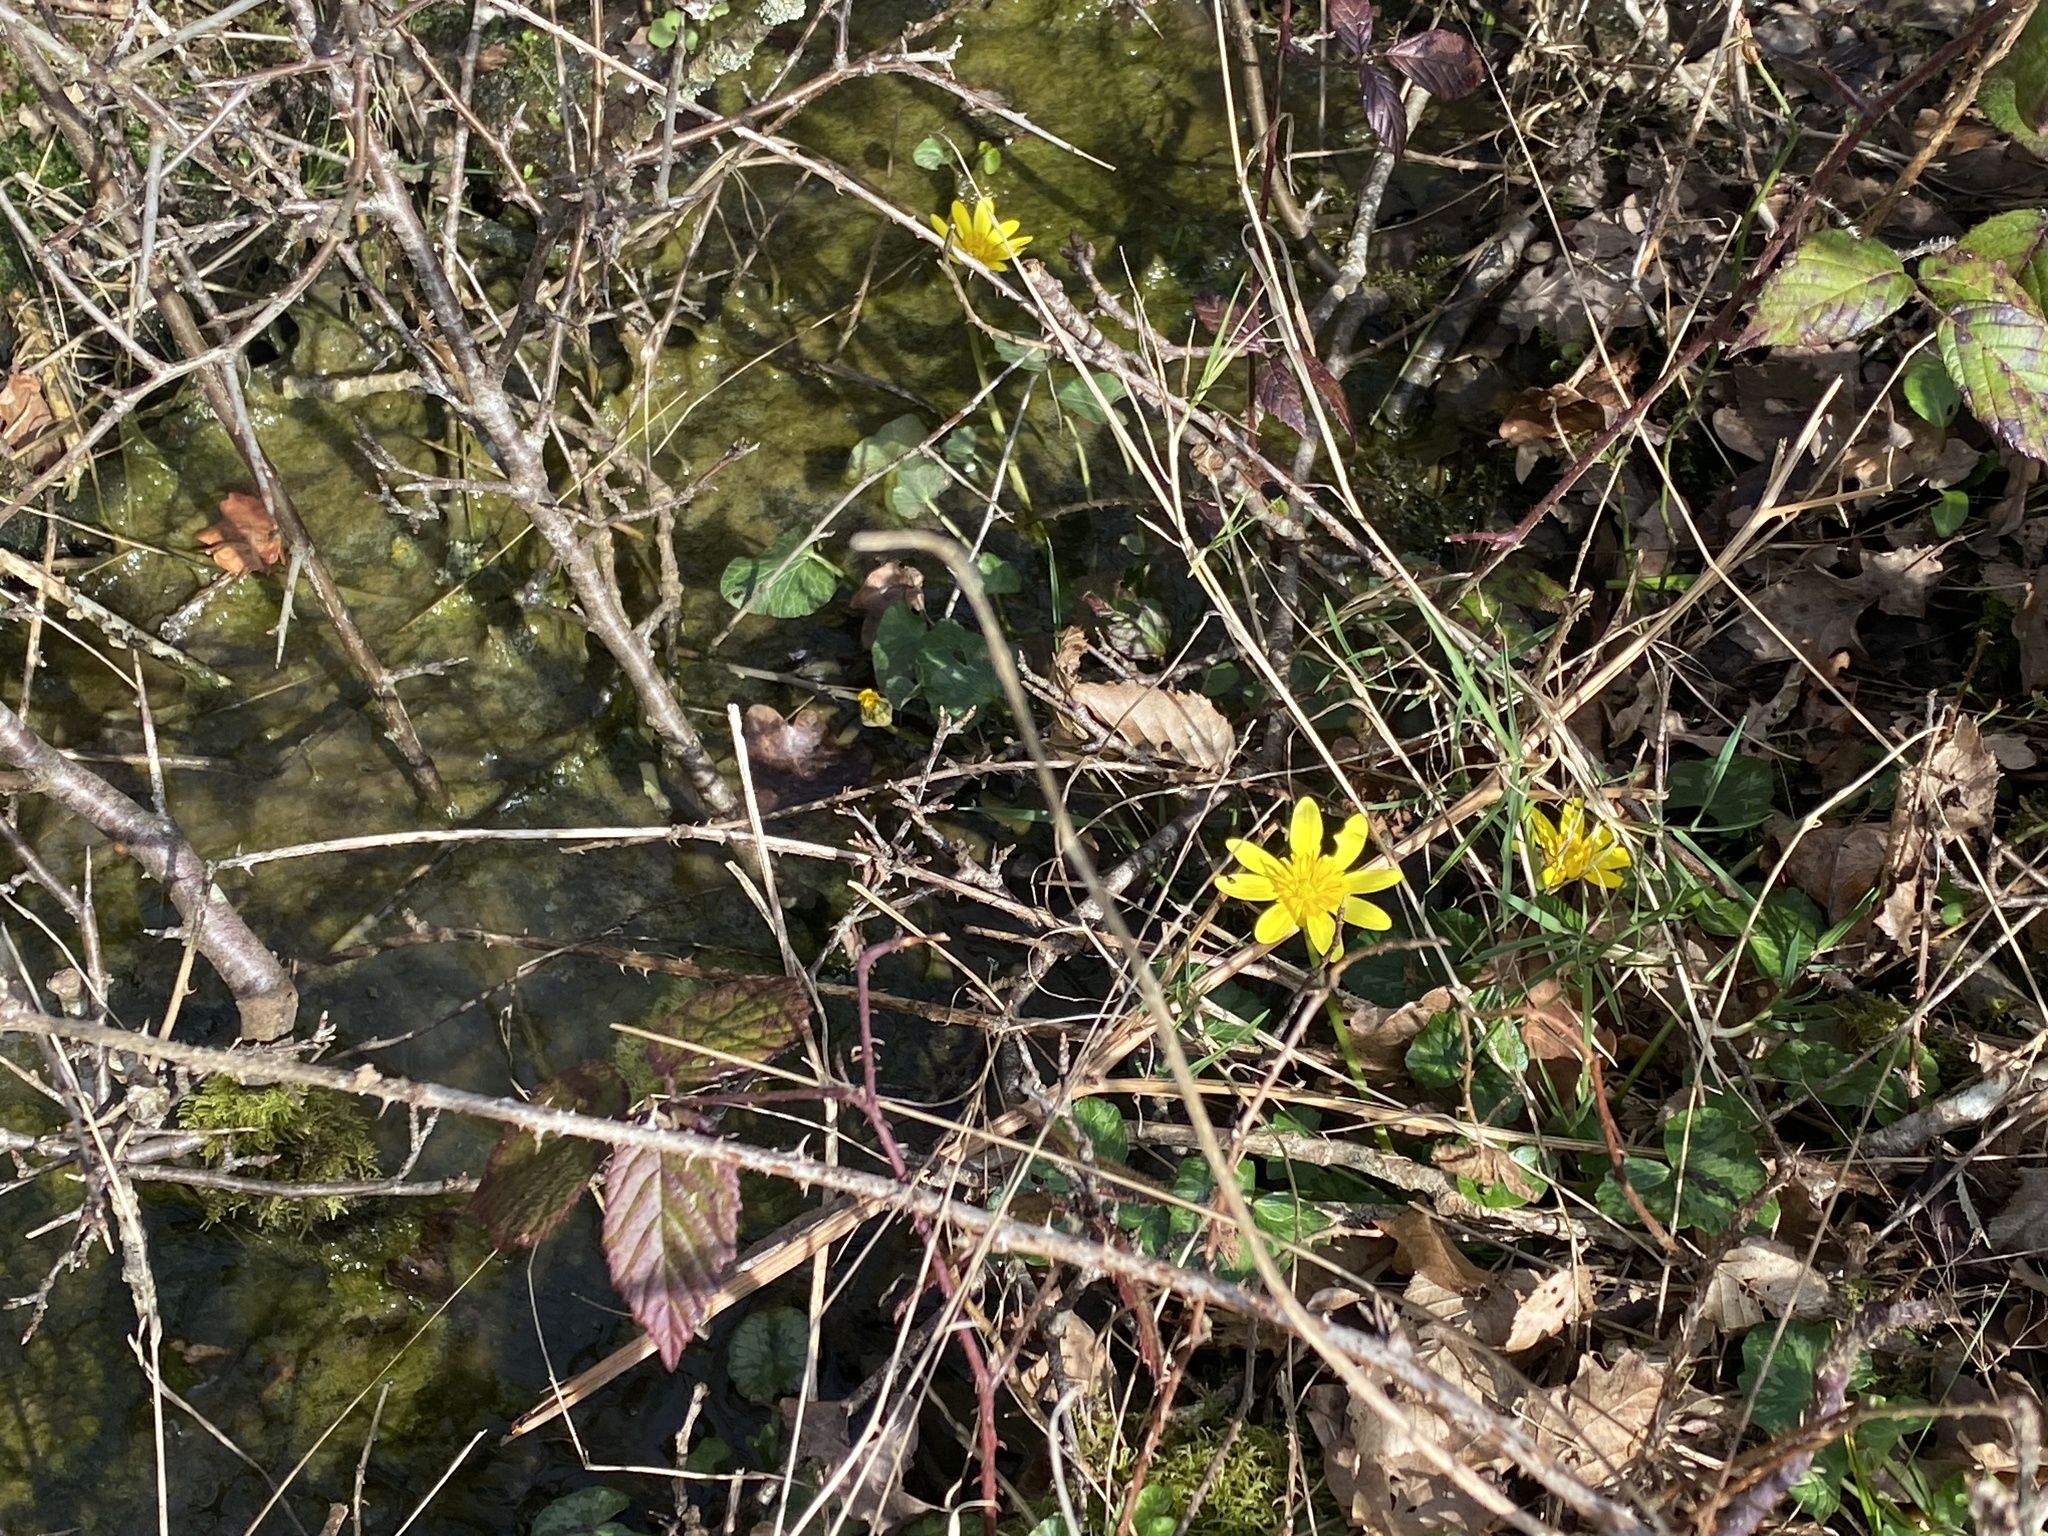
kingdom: Plantae
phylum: Tracheophyta
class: Magnoliopsida
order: Ranunculales
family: Ranunculaceae
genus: Ficaria
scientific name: Ficaria verna
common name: Lesser celandine
